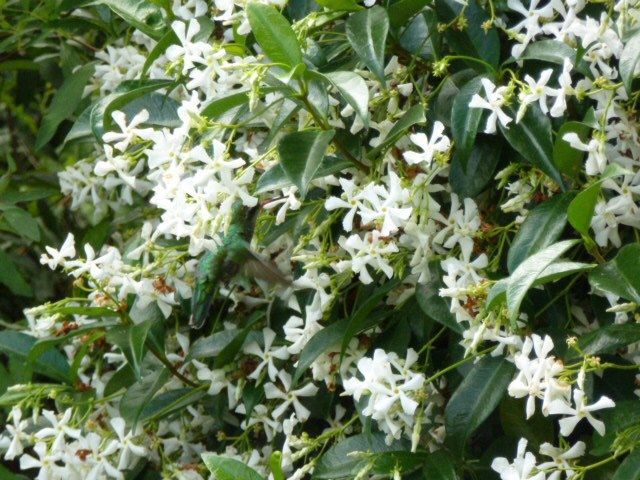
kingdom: Animalia
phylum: Chordata
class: Aves
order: Apodiformes
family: Trochilidae
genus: Chlorostilbon
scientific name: Chlorostilbon lucidus
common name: Glittering-bellied emerald
